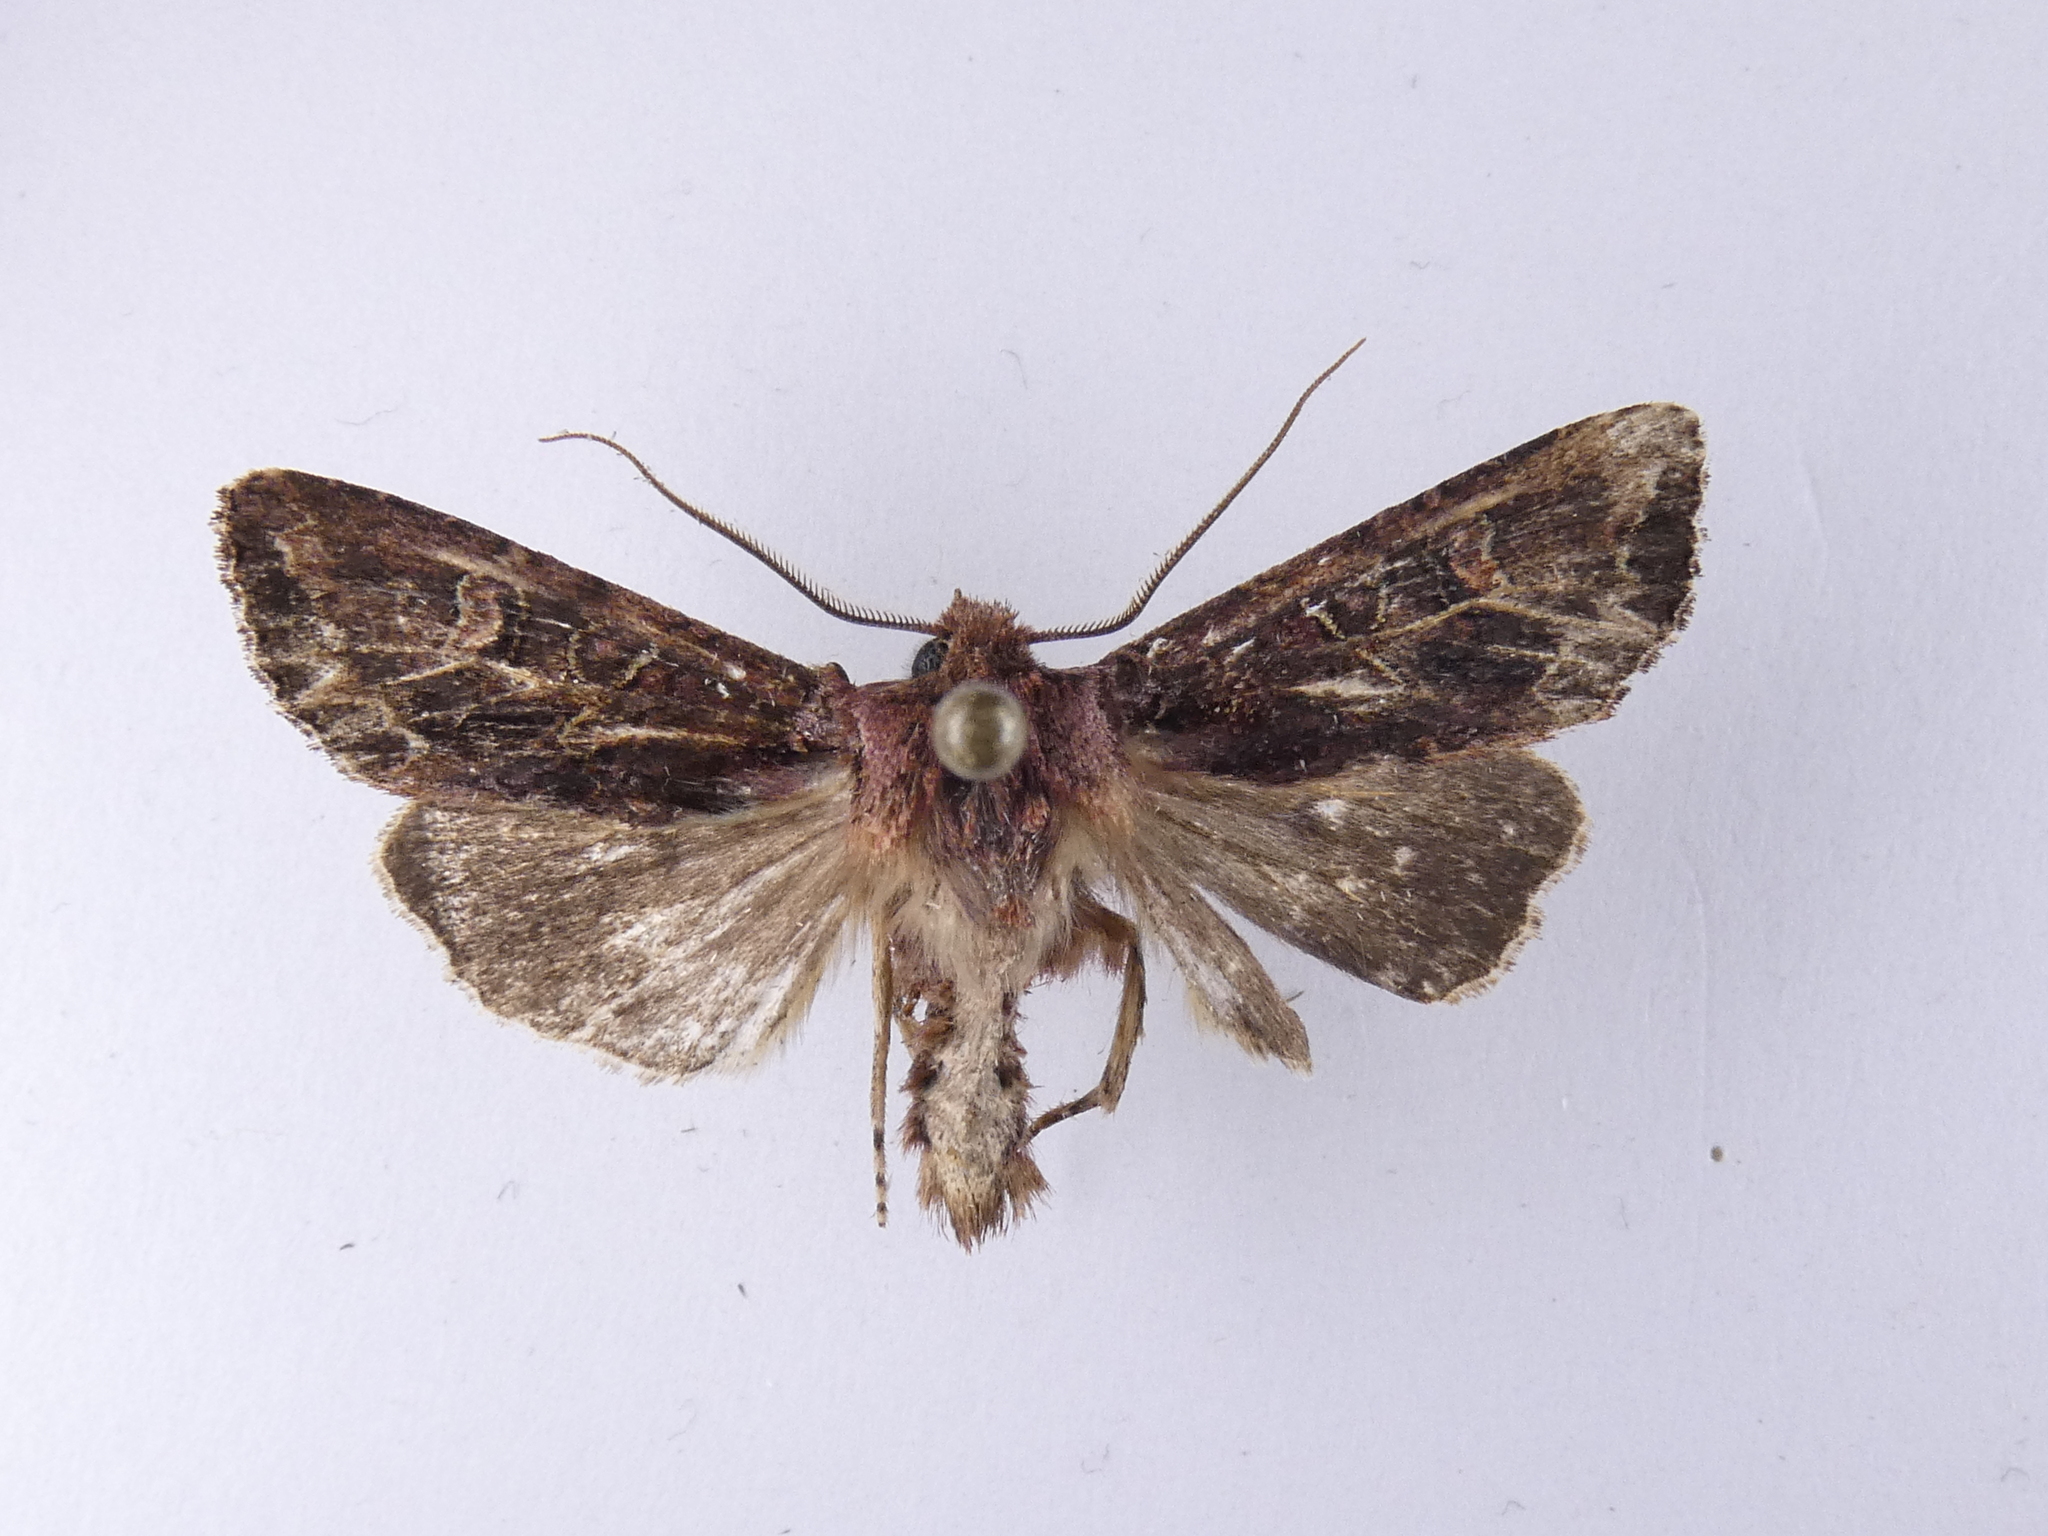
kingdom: Animalia
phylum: Arthropoda
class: Insecta
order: Lepidoptera
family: Noctuidae
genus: Ichneutica
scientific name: Ichneutica insignis
